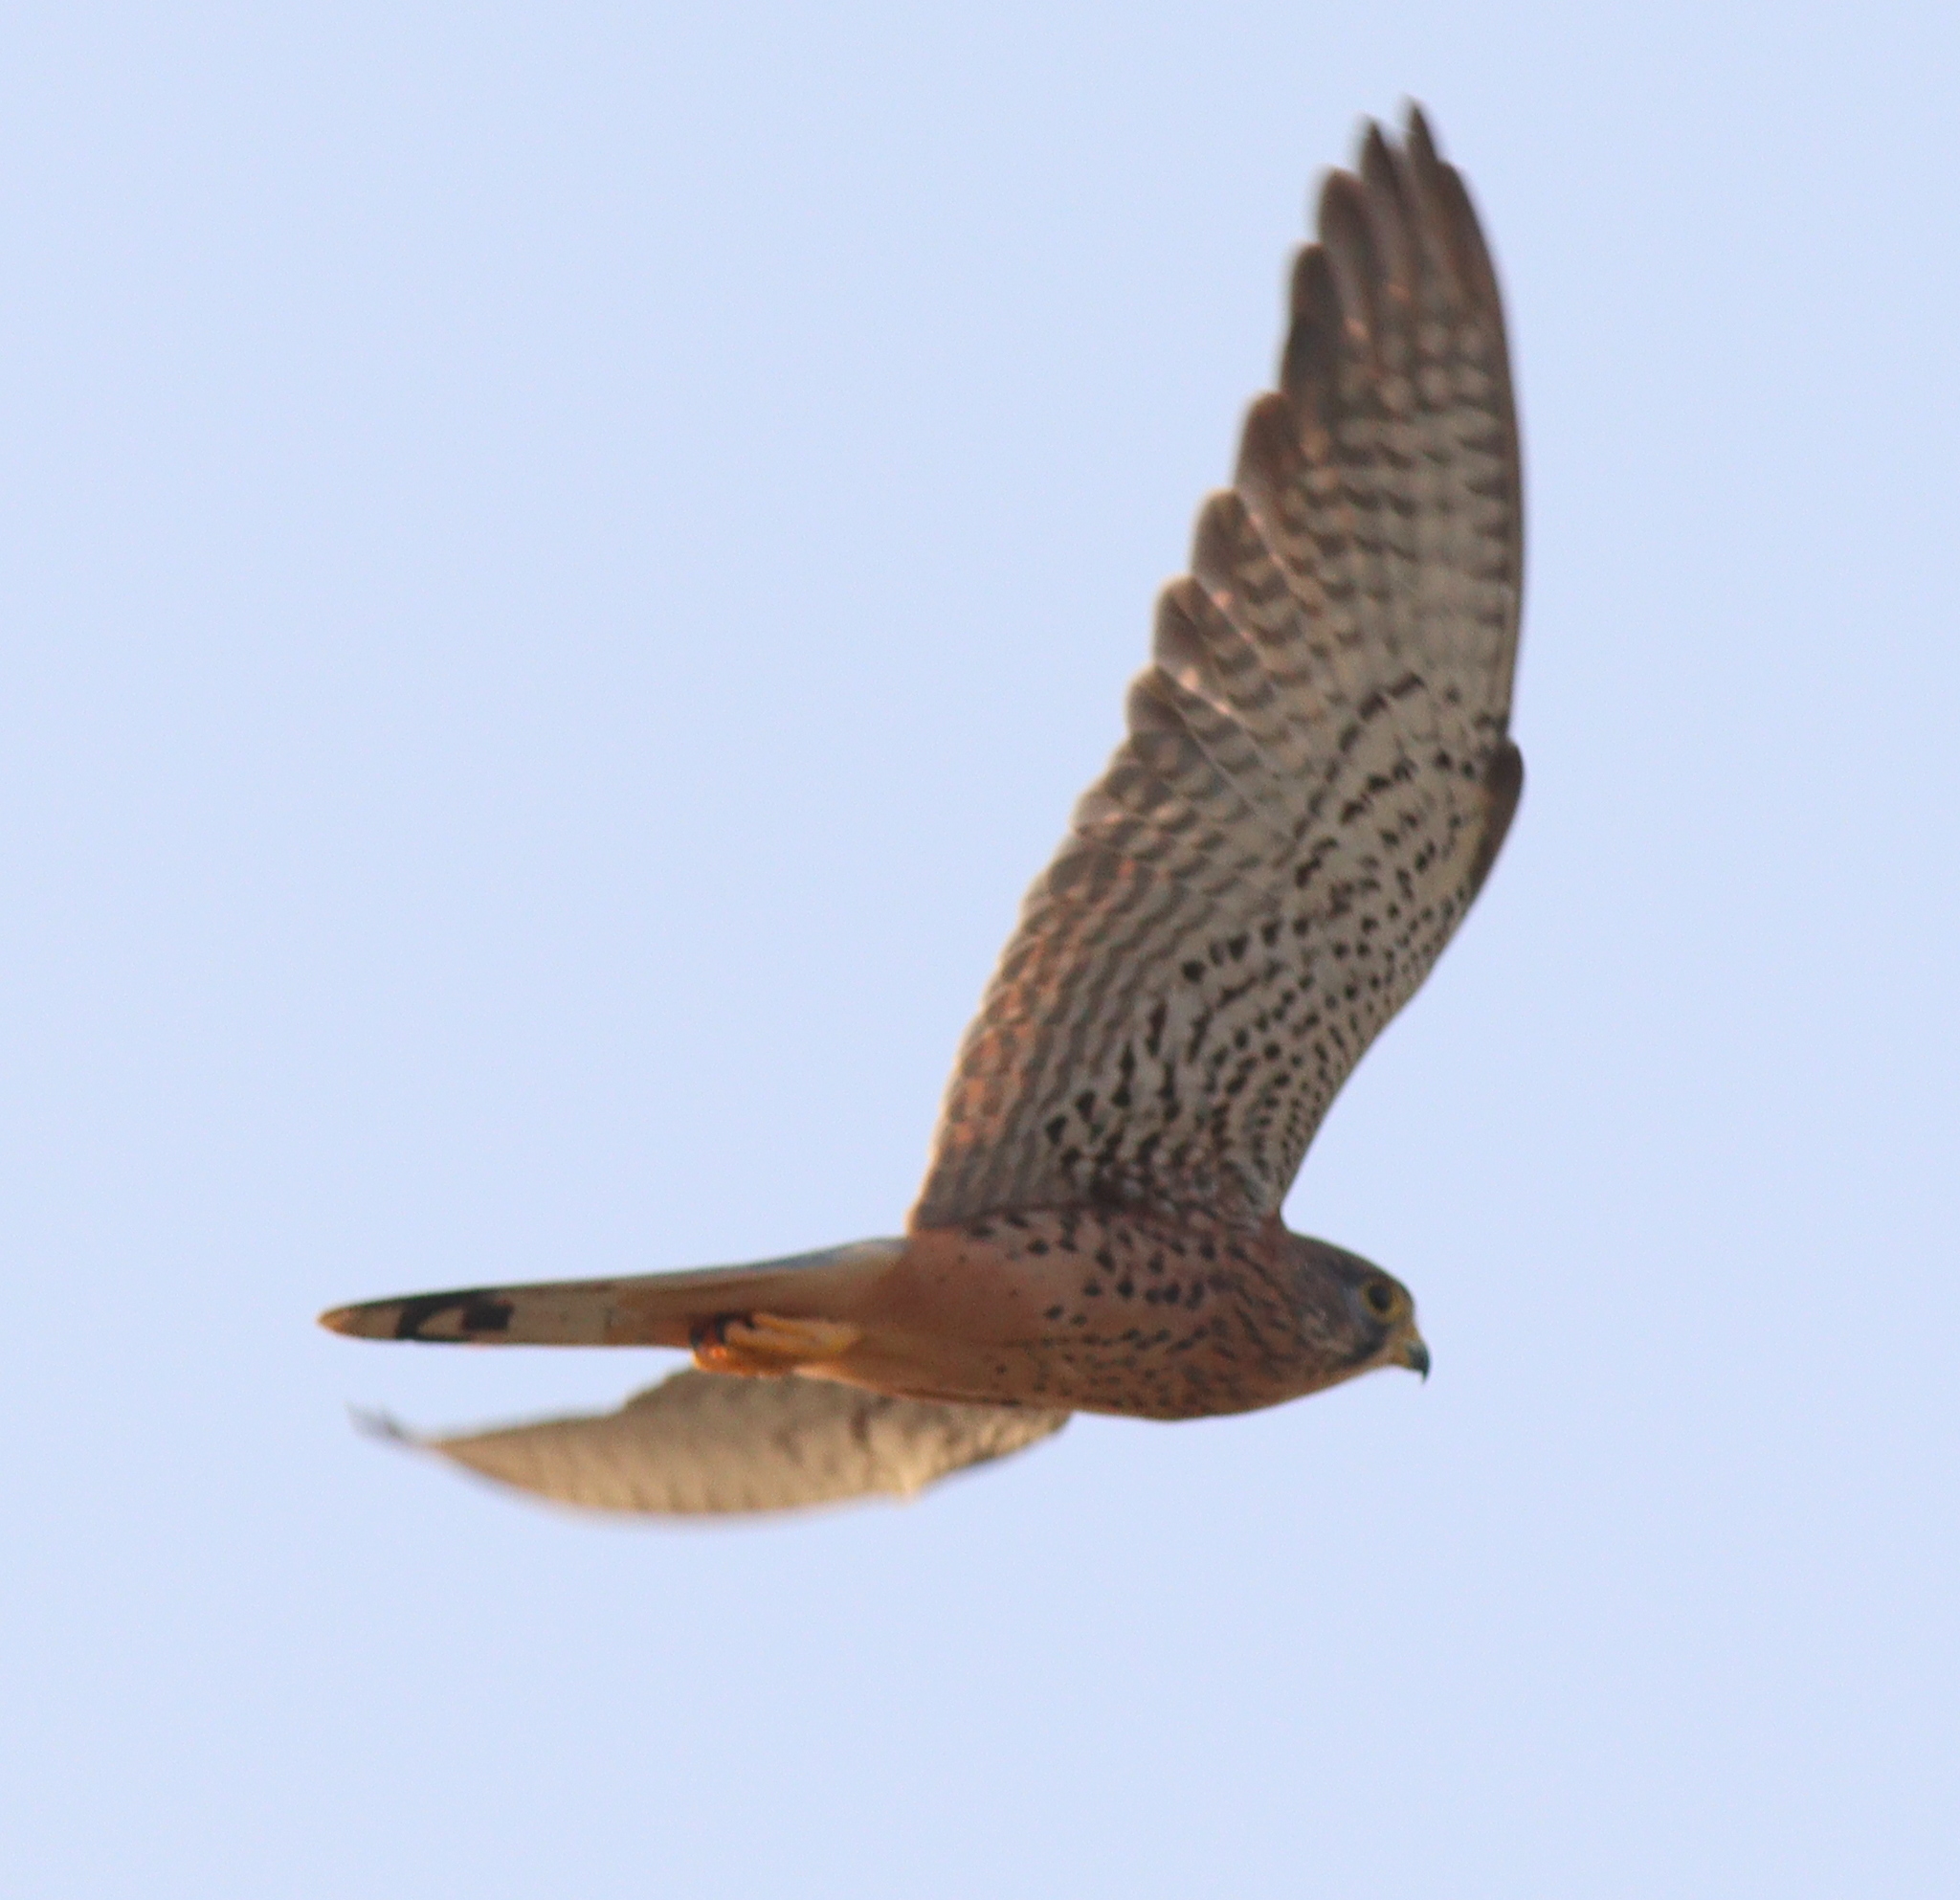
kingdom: Animalia
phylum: Chordata
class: Aves
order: Falconiformes
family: Falconidae
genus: Falco
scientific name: Falco tinnunculus
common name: Common kestrel
